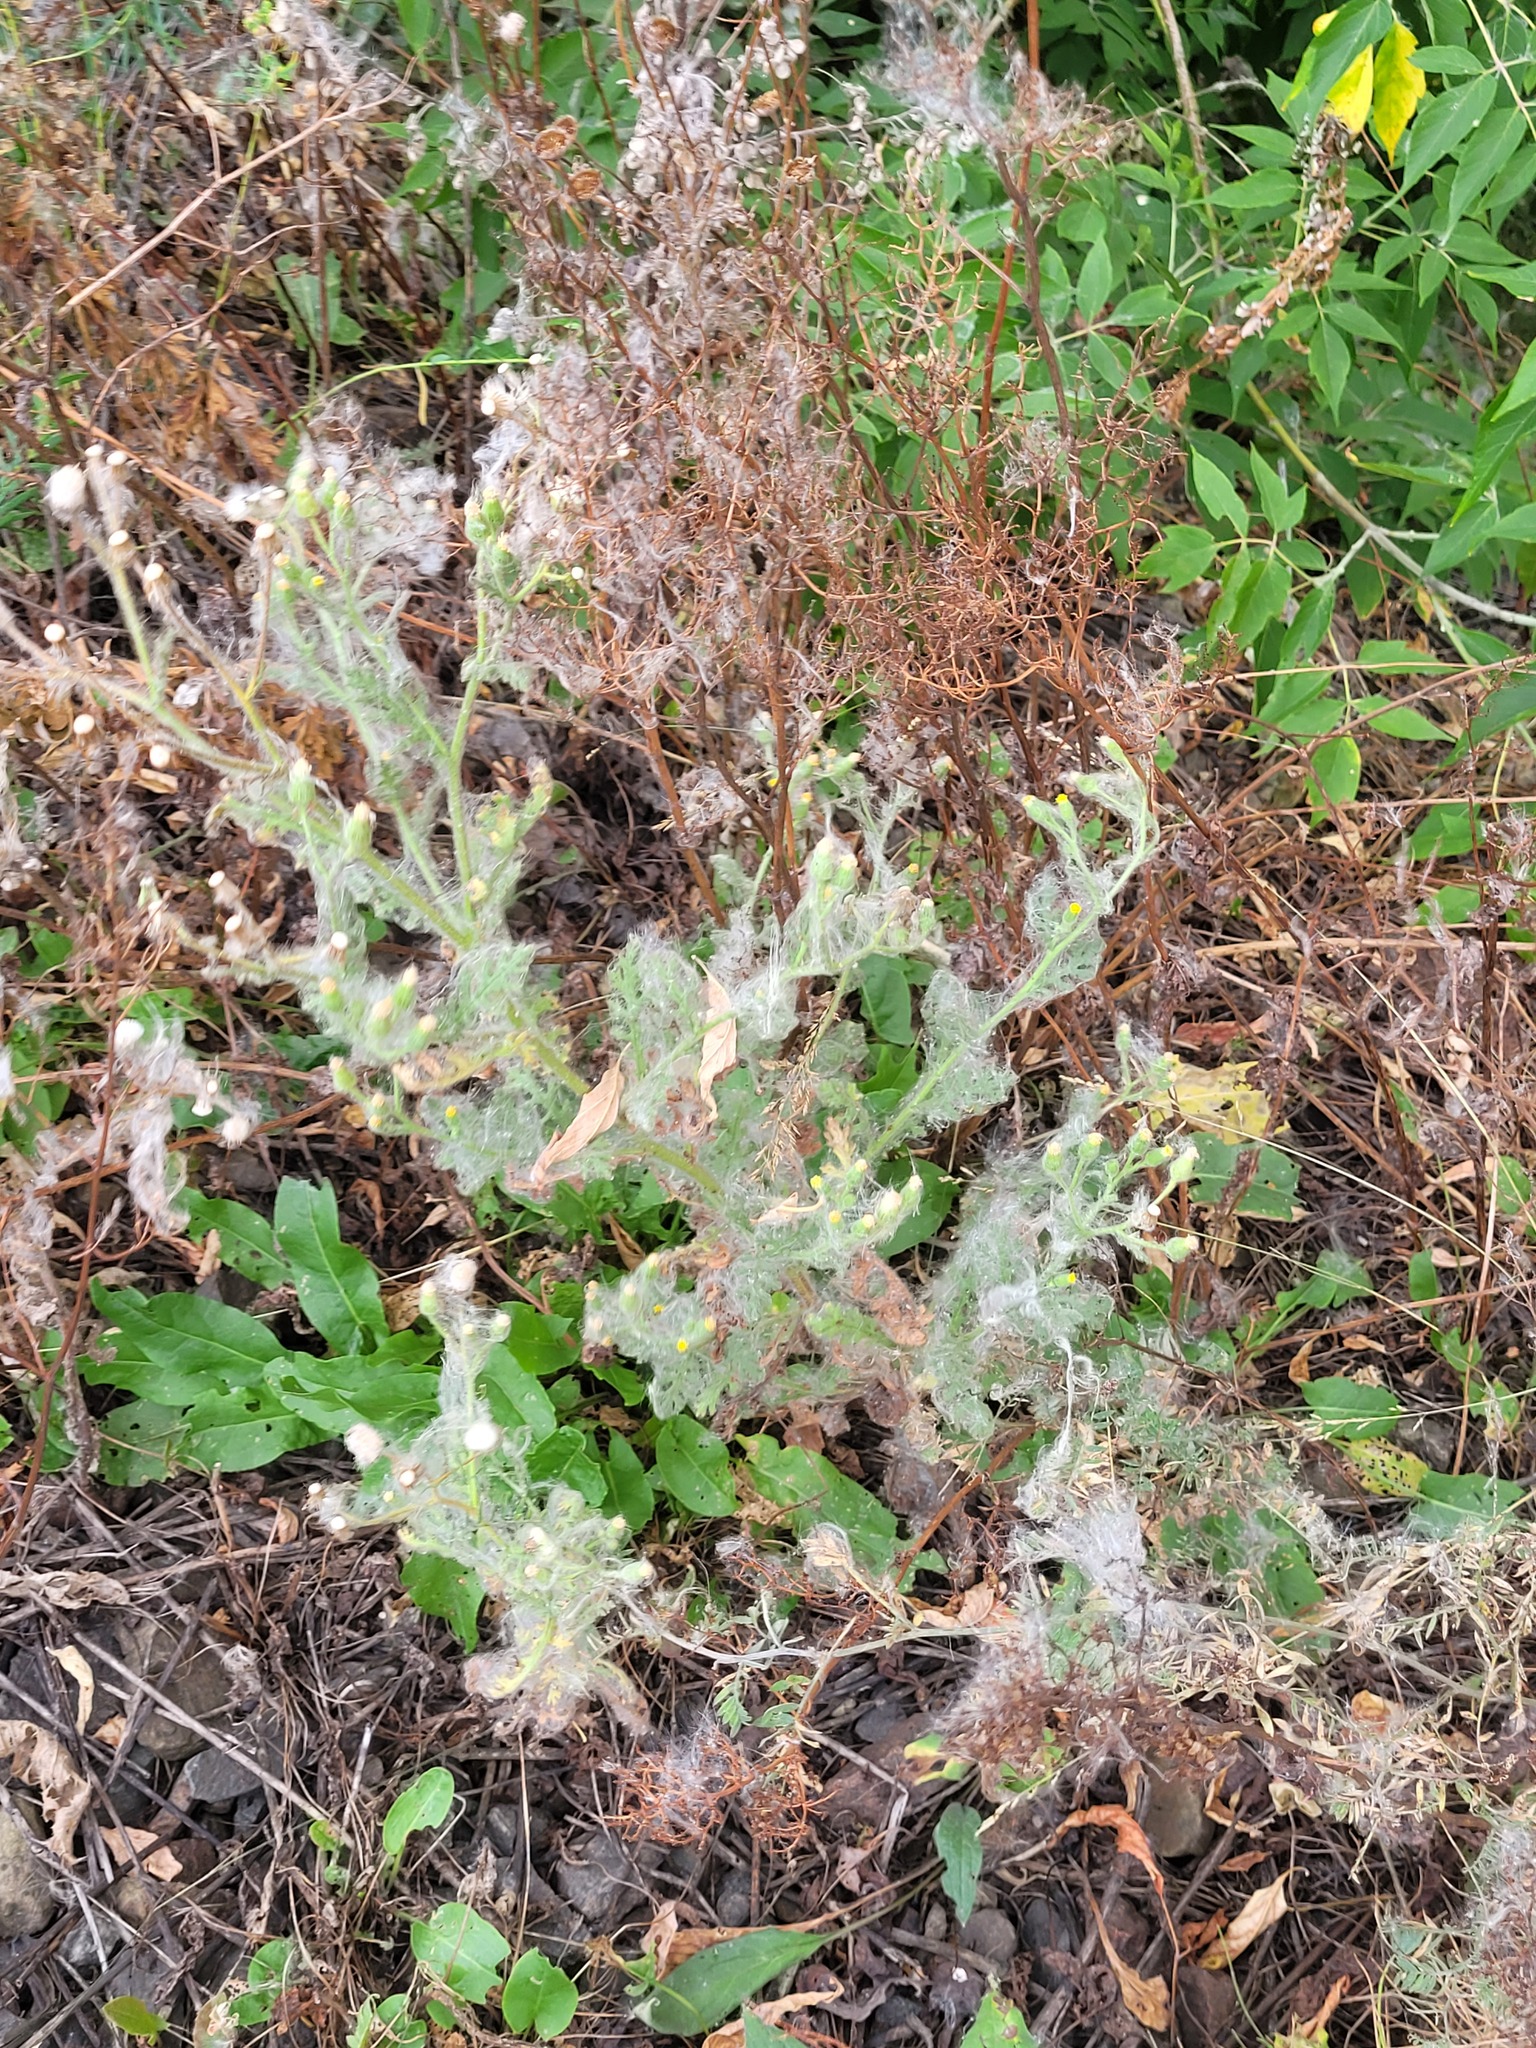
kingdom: Plantae
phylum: Tracheophyta
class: Magnoliopsida
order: Asterales
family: Asteraceae
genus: Senecio
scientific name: Senecio viscosus
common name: Sticky groundsel
